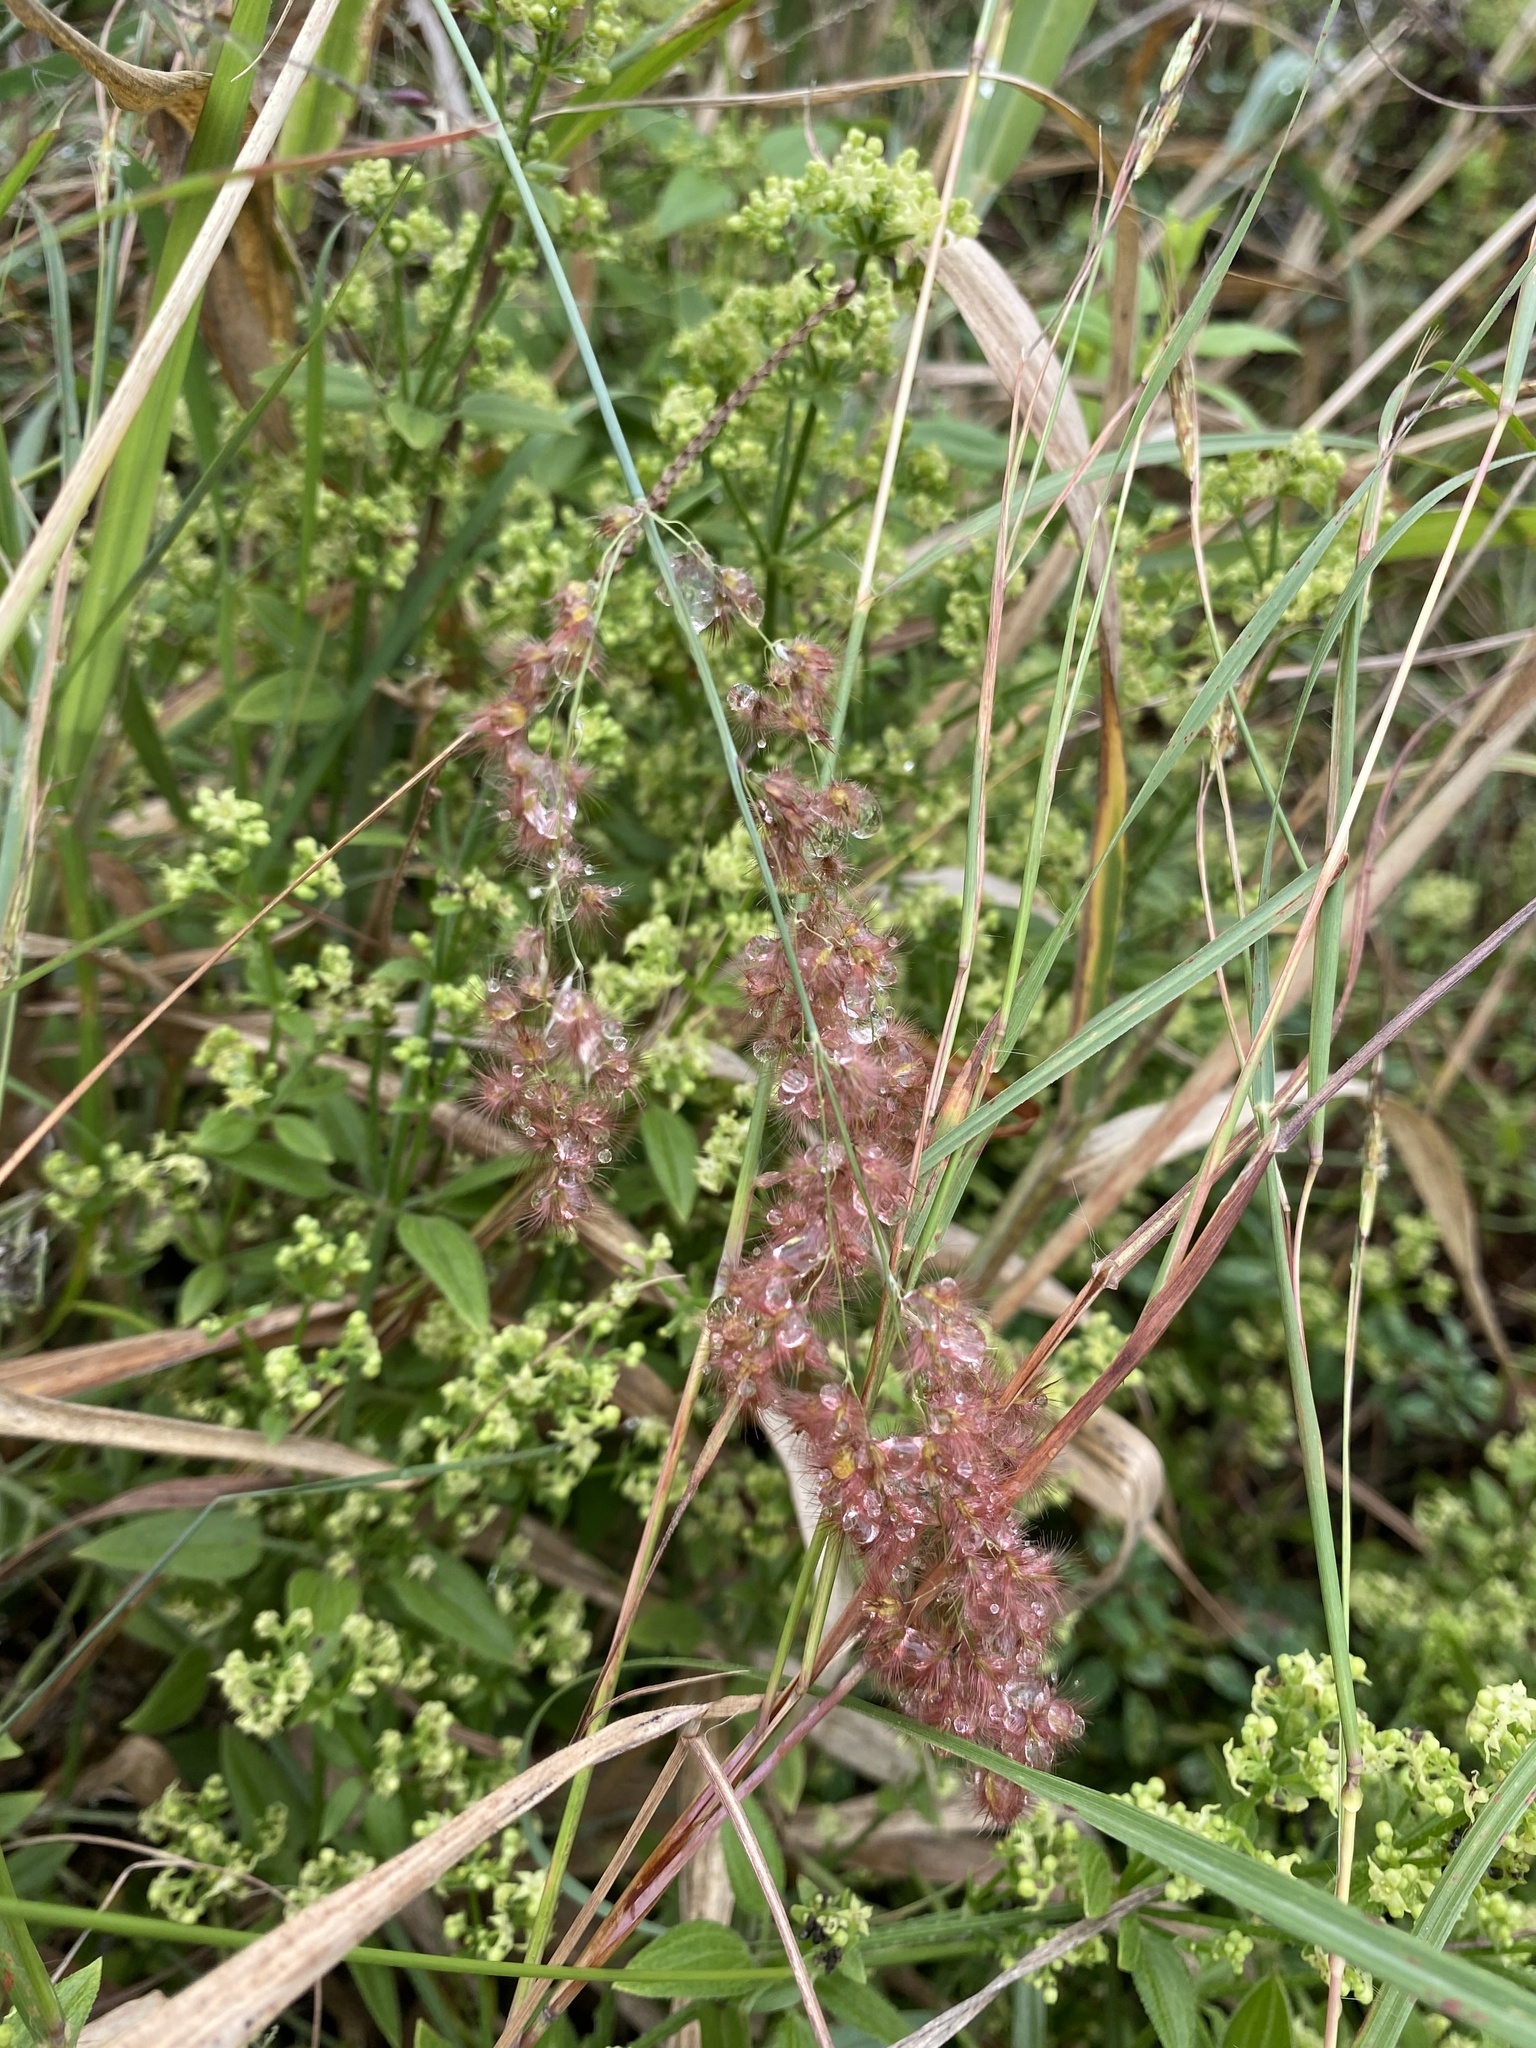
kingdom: Plantae
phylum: Tracheophyta
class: Liliopsida
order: Poales
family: Poaceae
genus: Melinis
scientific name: Melinis repens
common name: Rose natal grass
